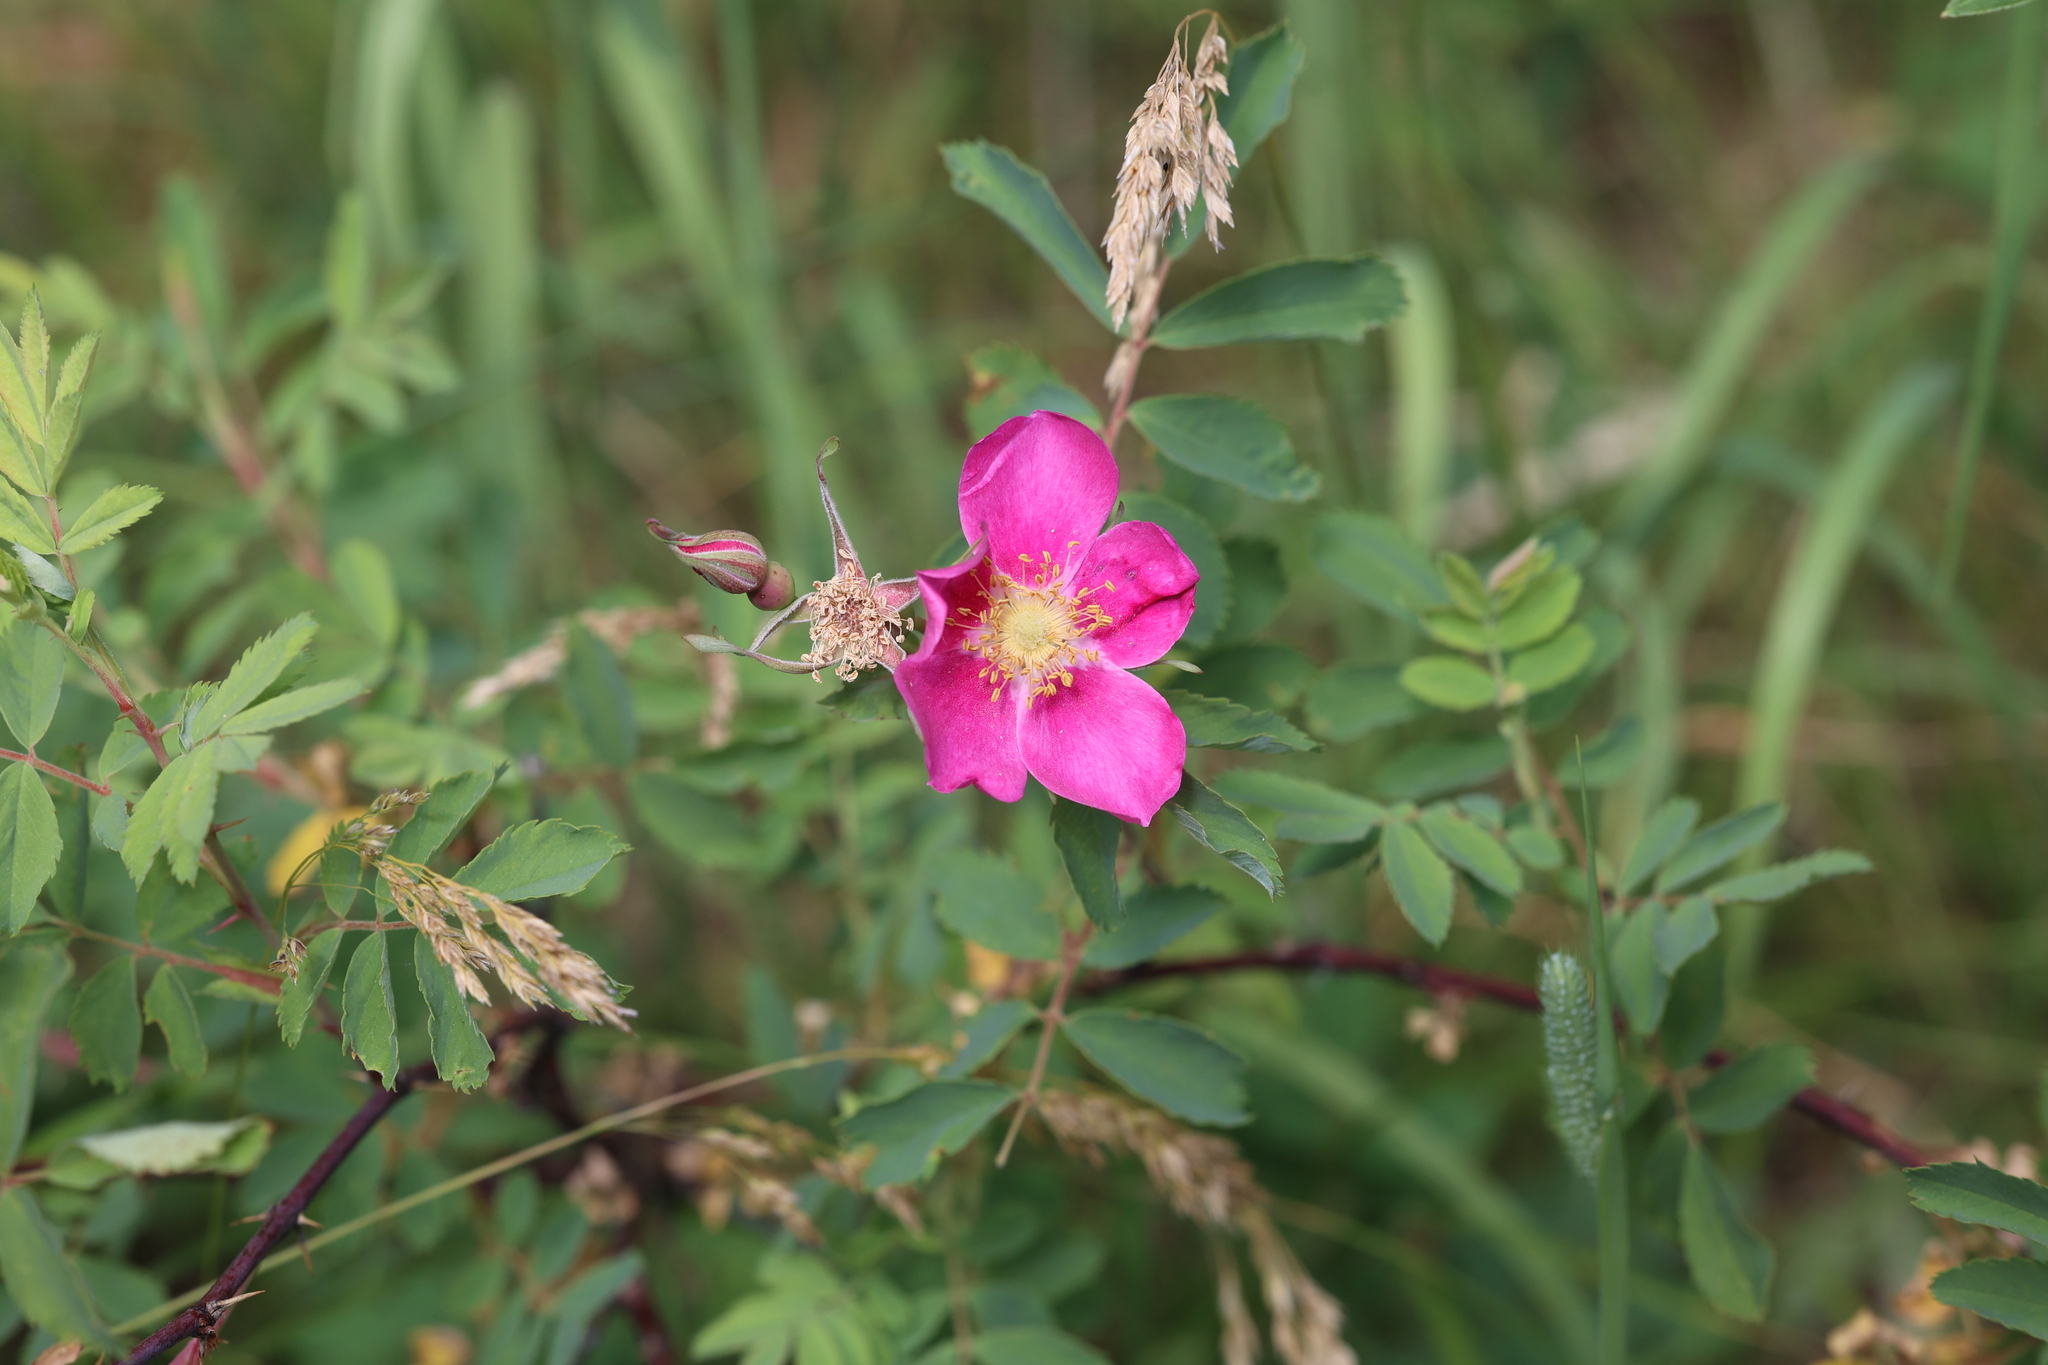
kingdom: Plantae
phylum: Tracheophyta
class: Magnoliopsida
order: Rosales
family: Rosaceae
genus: Rosa
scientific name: Rosa woodsii
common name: Woods's rose
